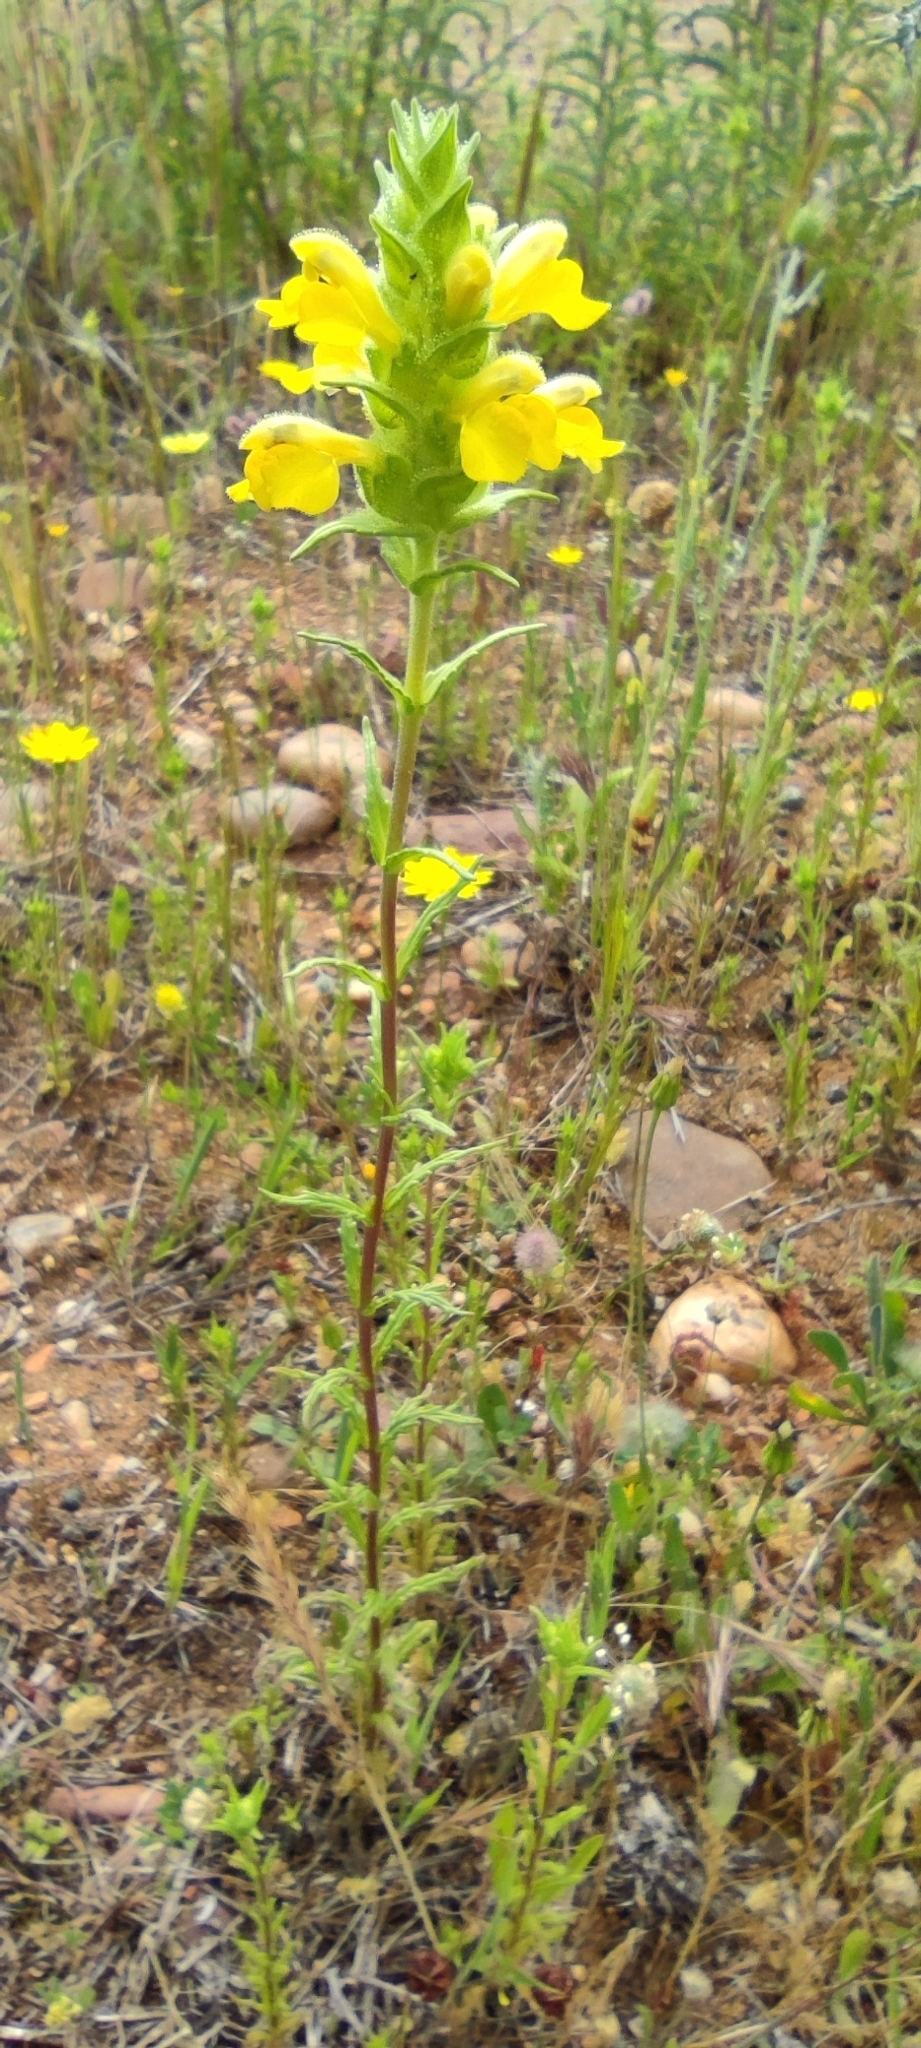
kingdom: Plantae
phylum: Tracheophyta
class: Magnoliopsida
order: Lamiales
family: Orobanchaceae
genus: Bellardia
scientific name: Bellardia trixago
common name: Mediterranean lineseed
